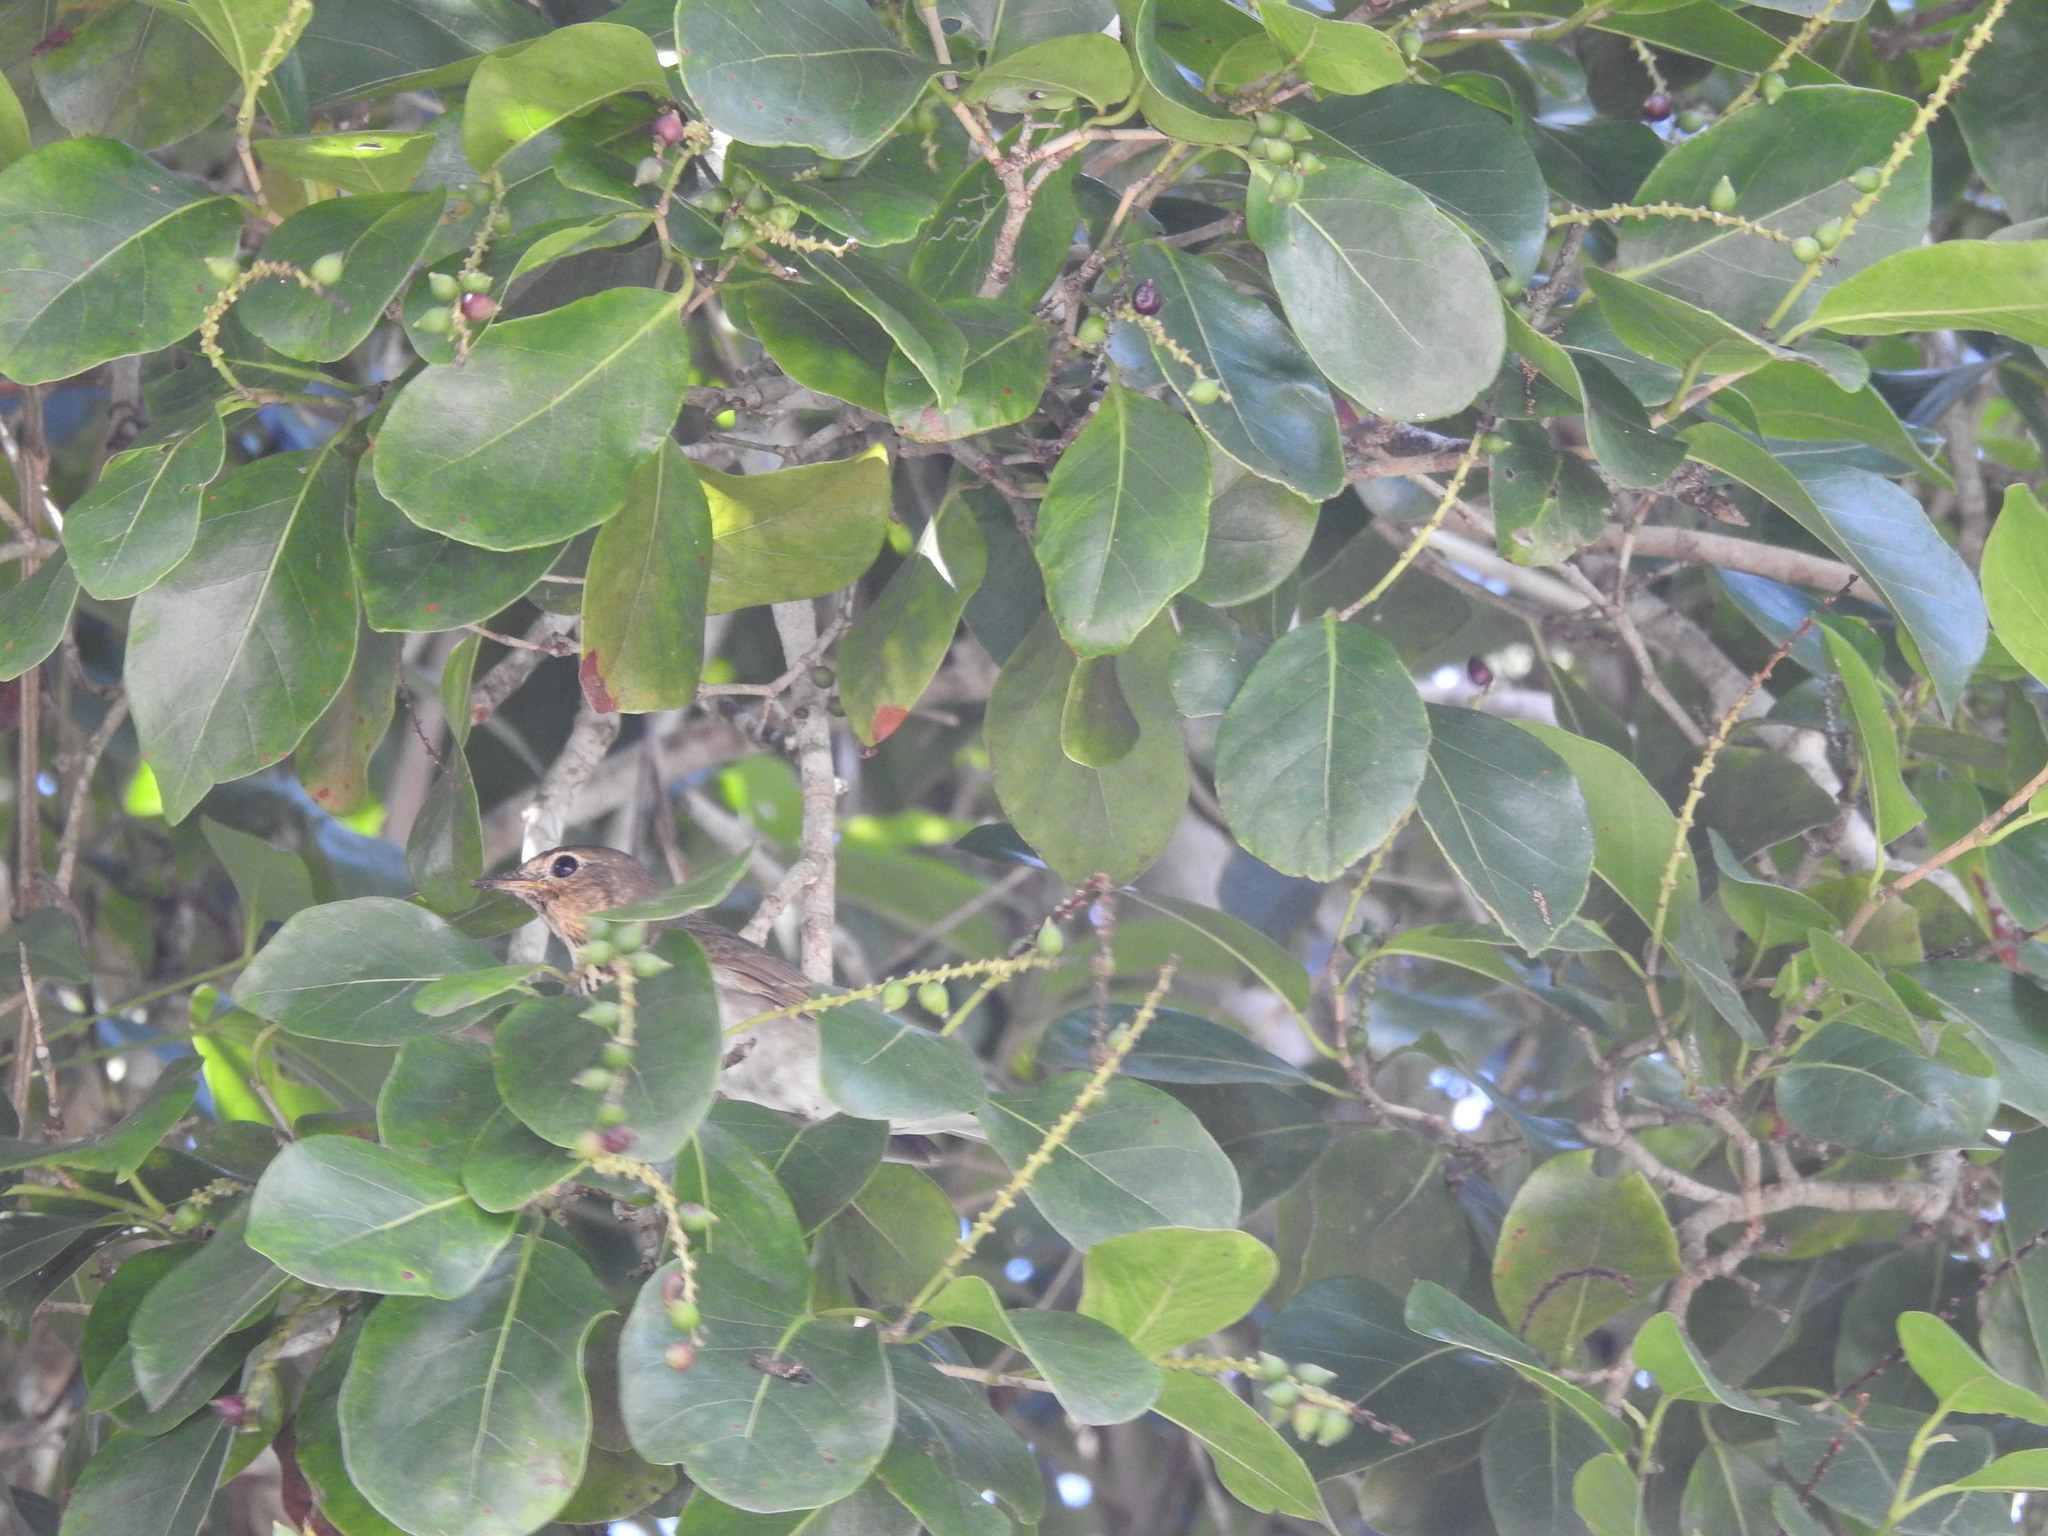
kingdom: Animalia
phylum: Chordata
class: Aves
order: Passeriformes
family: Turdidae
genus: Catharus
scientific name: Catharus ustulatus
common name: Swainson's thrush
